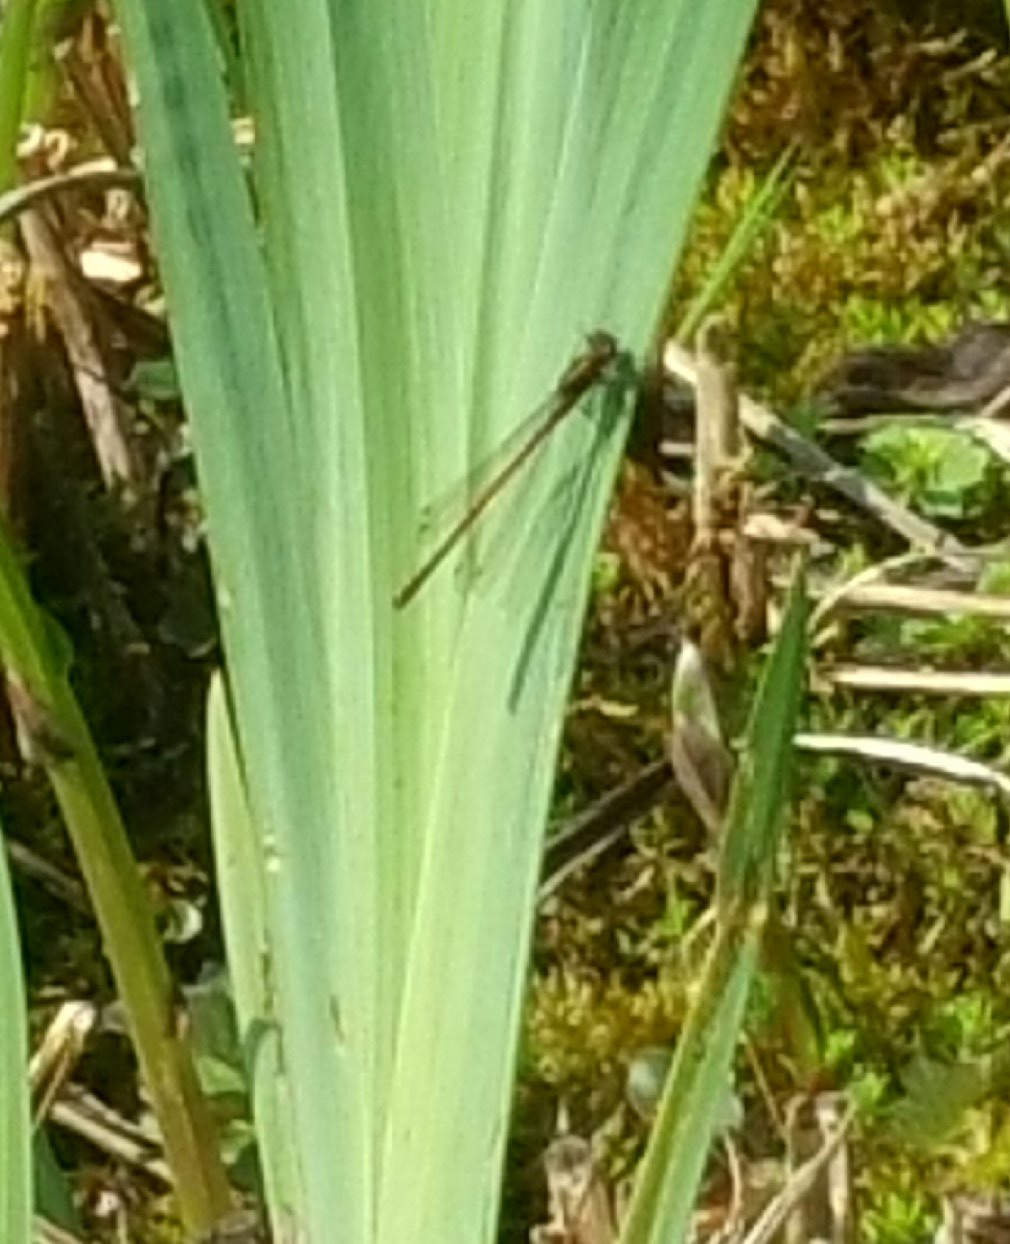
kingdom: Animalia
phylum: Arthropoda
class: Insecta
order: Odonata
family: Coenagrionidae
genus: Pyrrhosoma
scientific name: Pyrrhosoma nymphula
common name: Large red damsel
